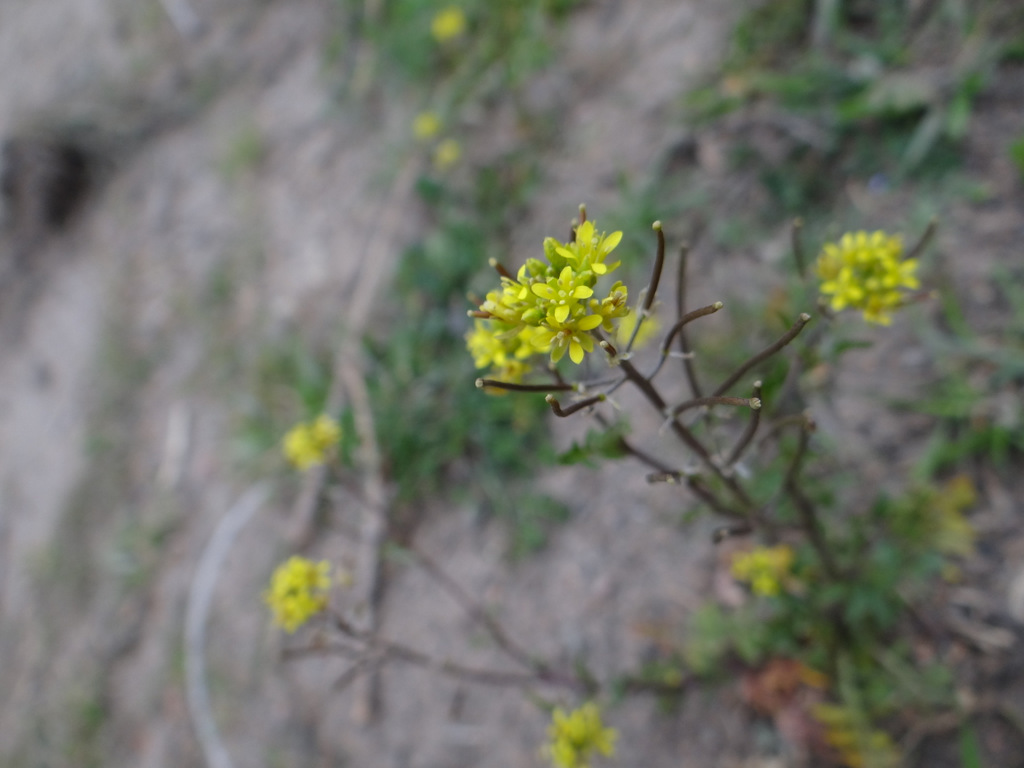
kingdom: Plantae
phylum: Tracheophyta
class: Magnoliopsida
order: Brassicales
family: Brassicaceae
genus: Sisymbrium
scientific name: Sisymbrium irio
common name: London rocket
